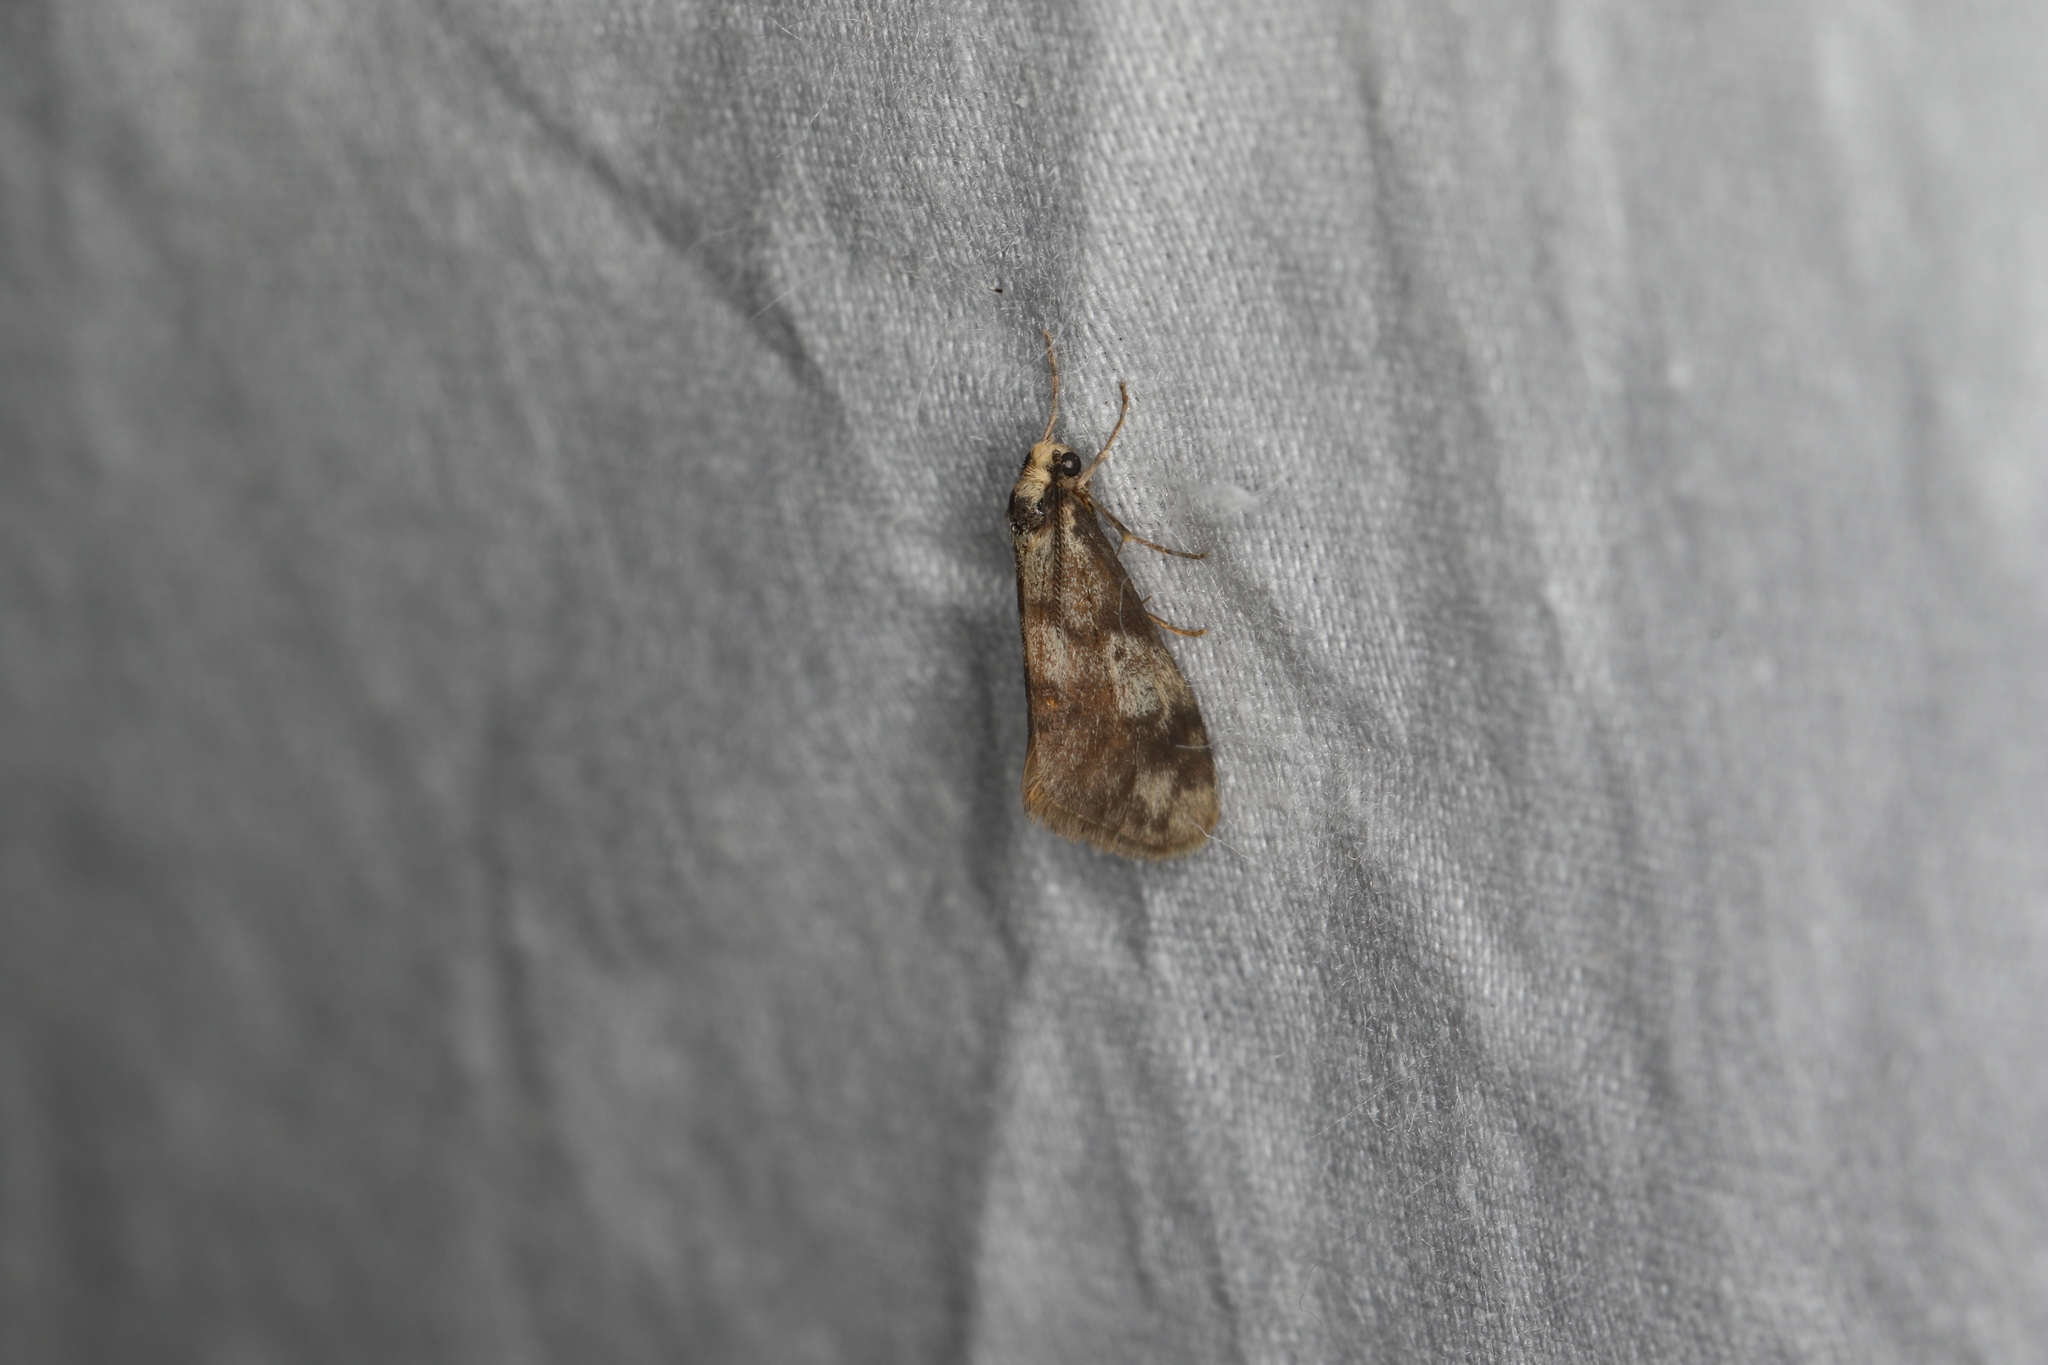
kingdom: Animalia
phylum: Arthropoda
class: Insecta
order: Lepidoptera
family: Erebidae
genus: Anestia
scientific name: Anestia semiochrea
